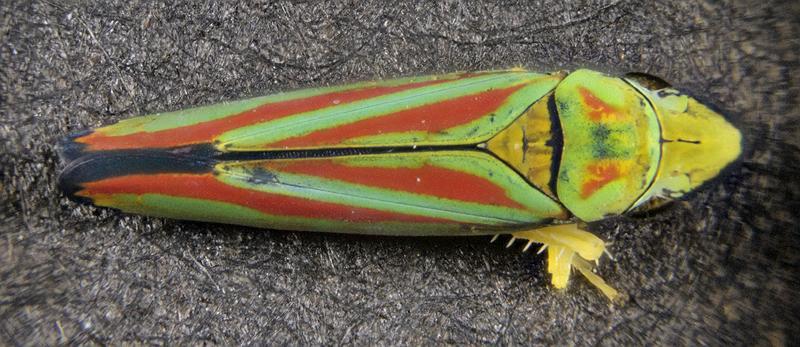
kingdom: Animalia
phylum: Arthropoda
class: Insecta
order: Hemiptera
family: Cicadellidae
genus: Graphocephala
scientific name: Graphocephala fennahi
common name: Rhododendron leafhopper
